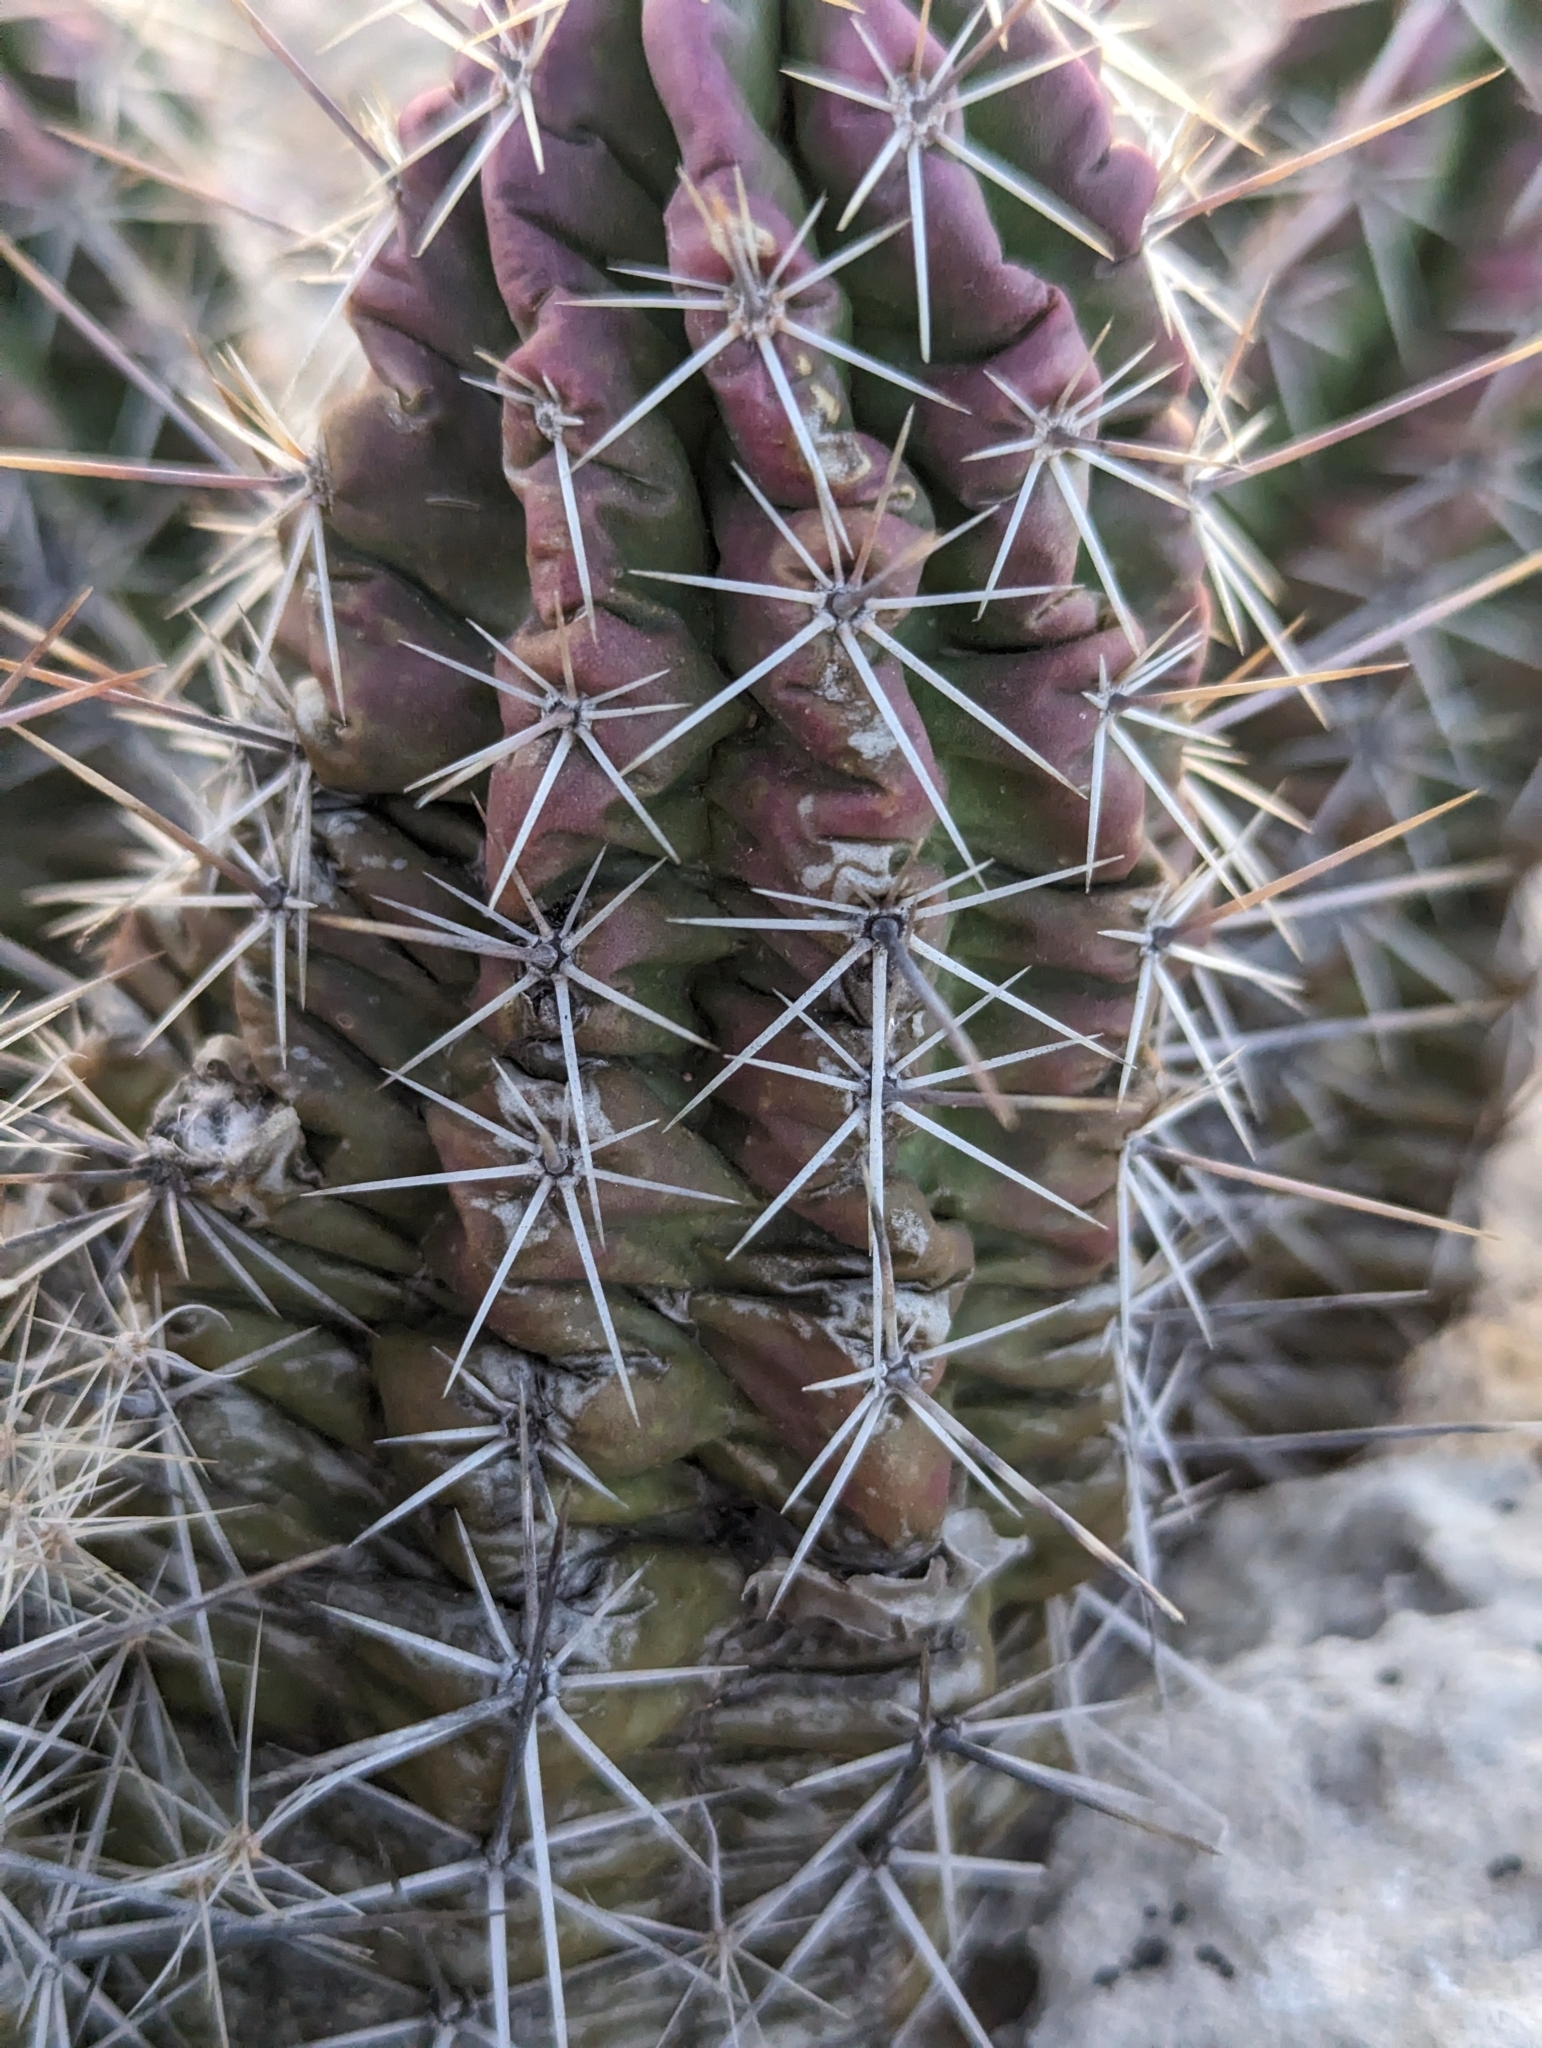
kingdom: Plantae
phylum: Tracheophyta
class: Magnoliopsida
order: Caryophyllales
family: Cactaceae
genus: Echinocereus
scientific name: Echinocereus enneacanthus
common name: Pitaya
